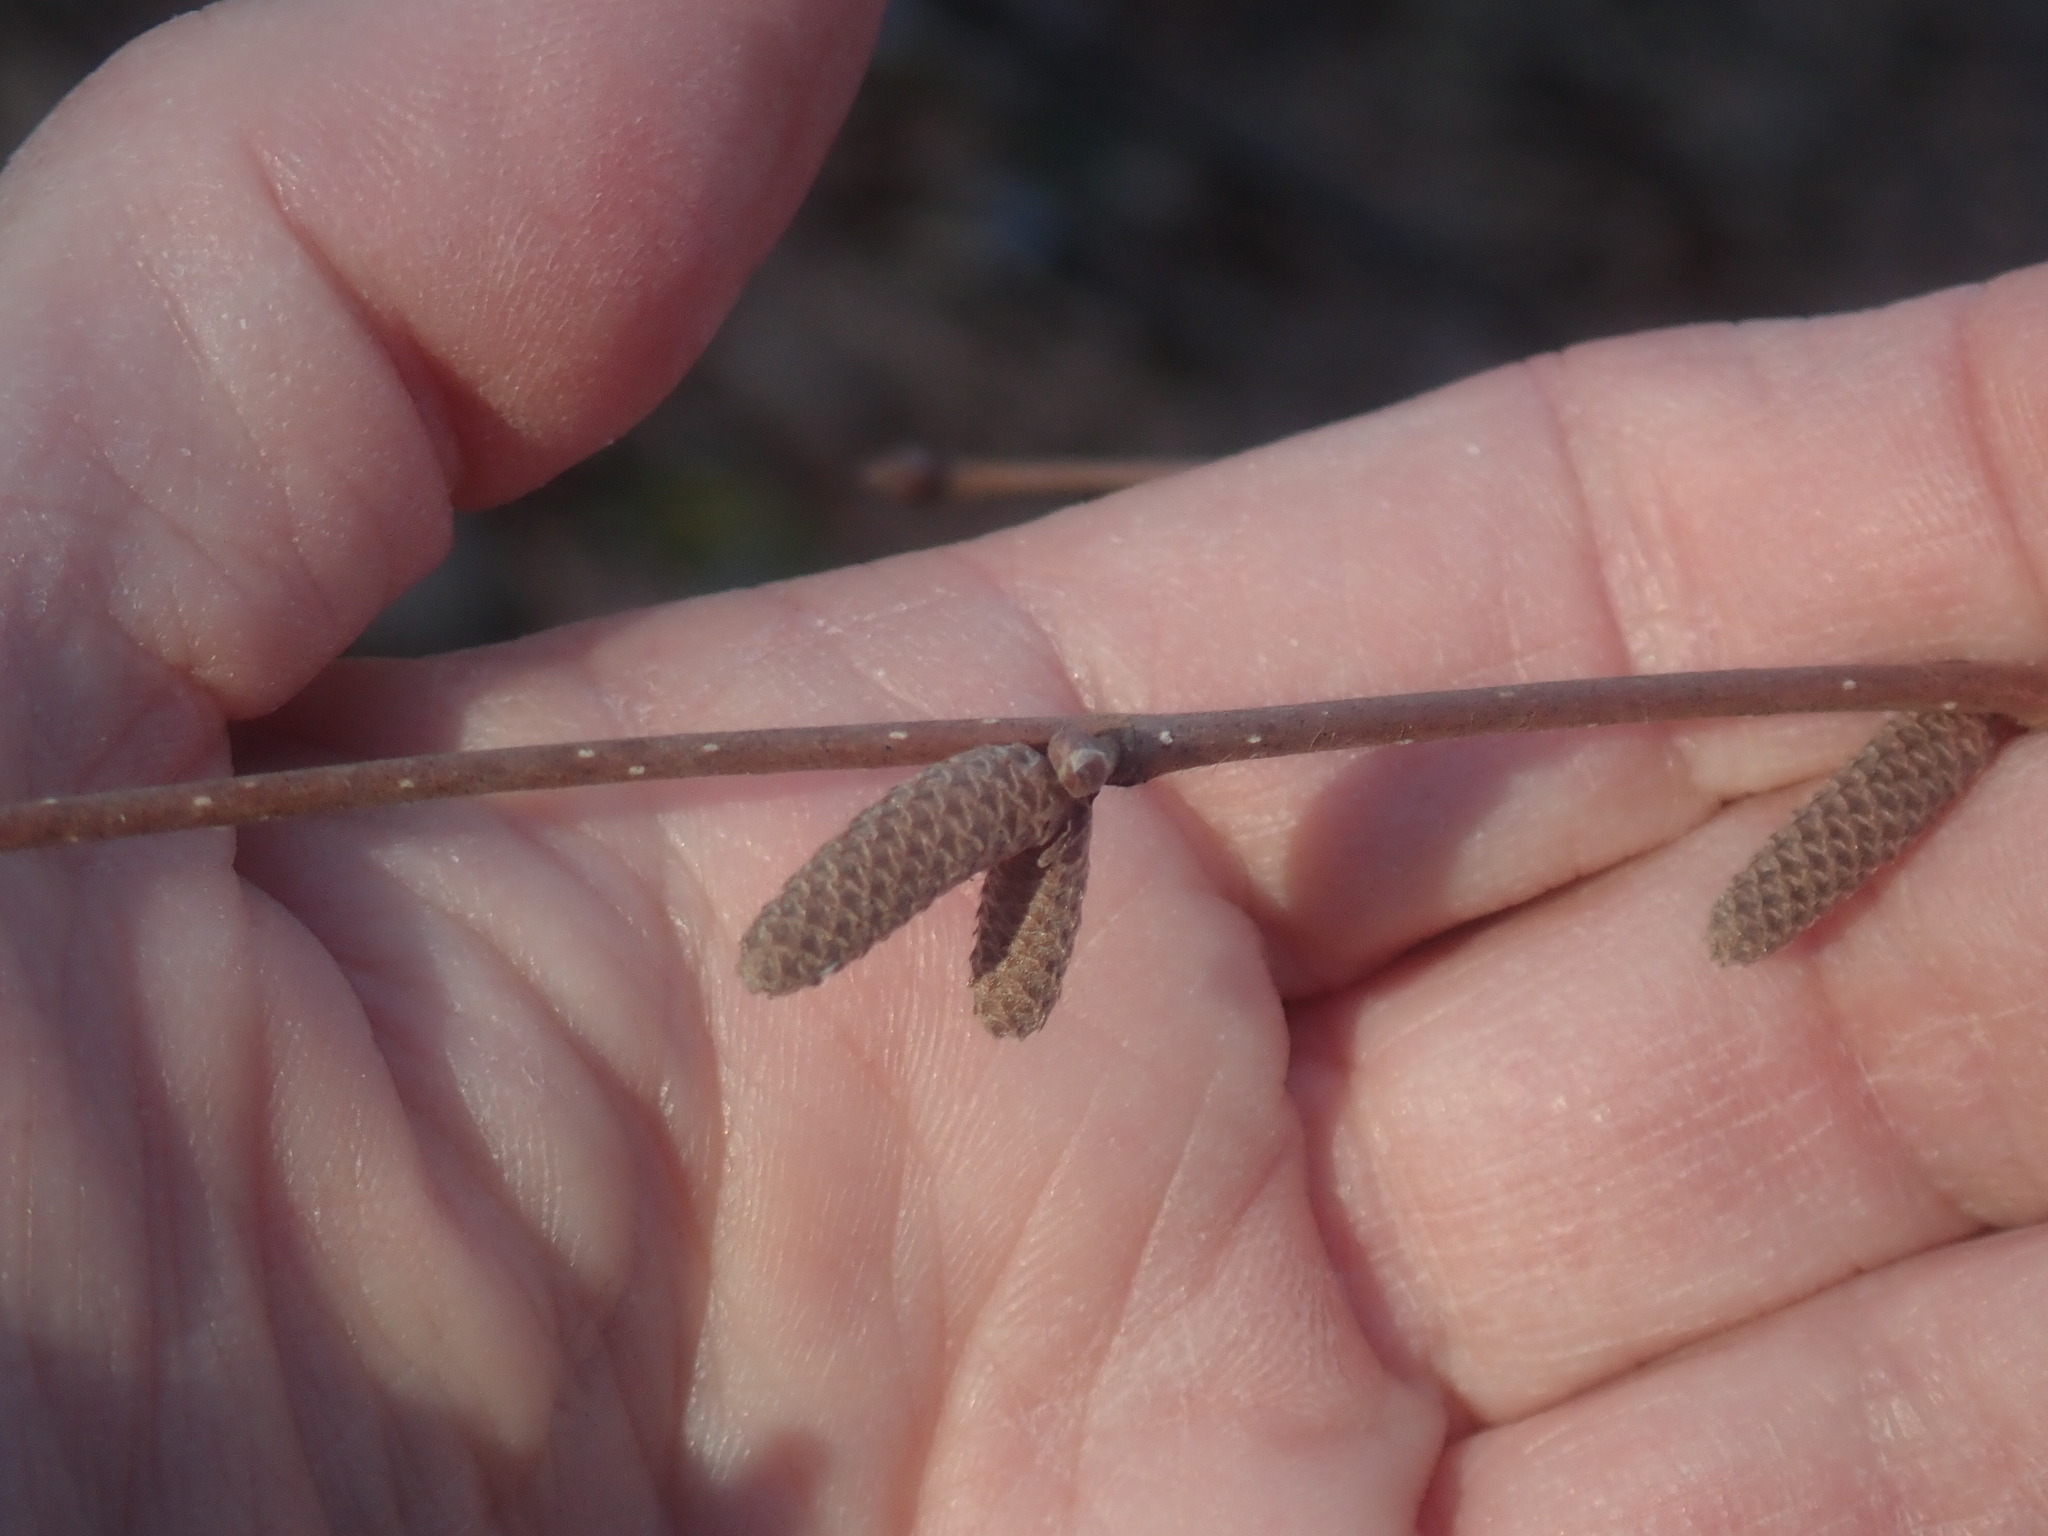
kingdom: Plantae
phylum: Tracheophyta
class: Magnoliopsida
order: Fagales
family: Betulaceae
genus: Corylus
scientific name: Corylus cornuta
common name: Beaked hazel
